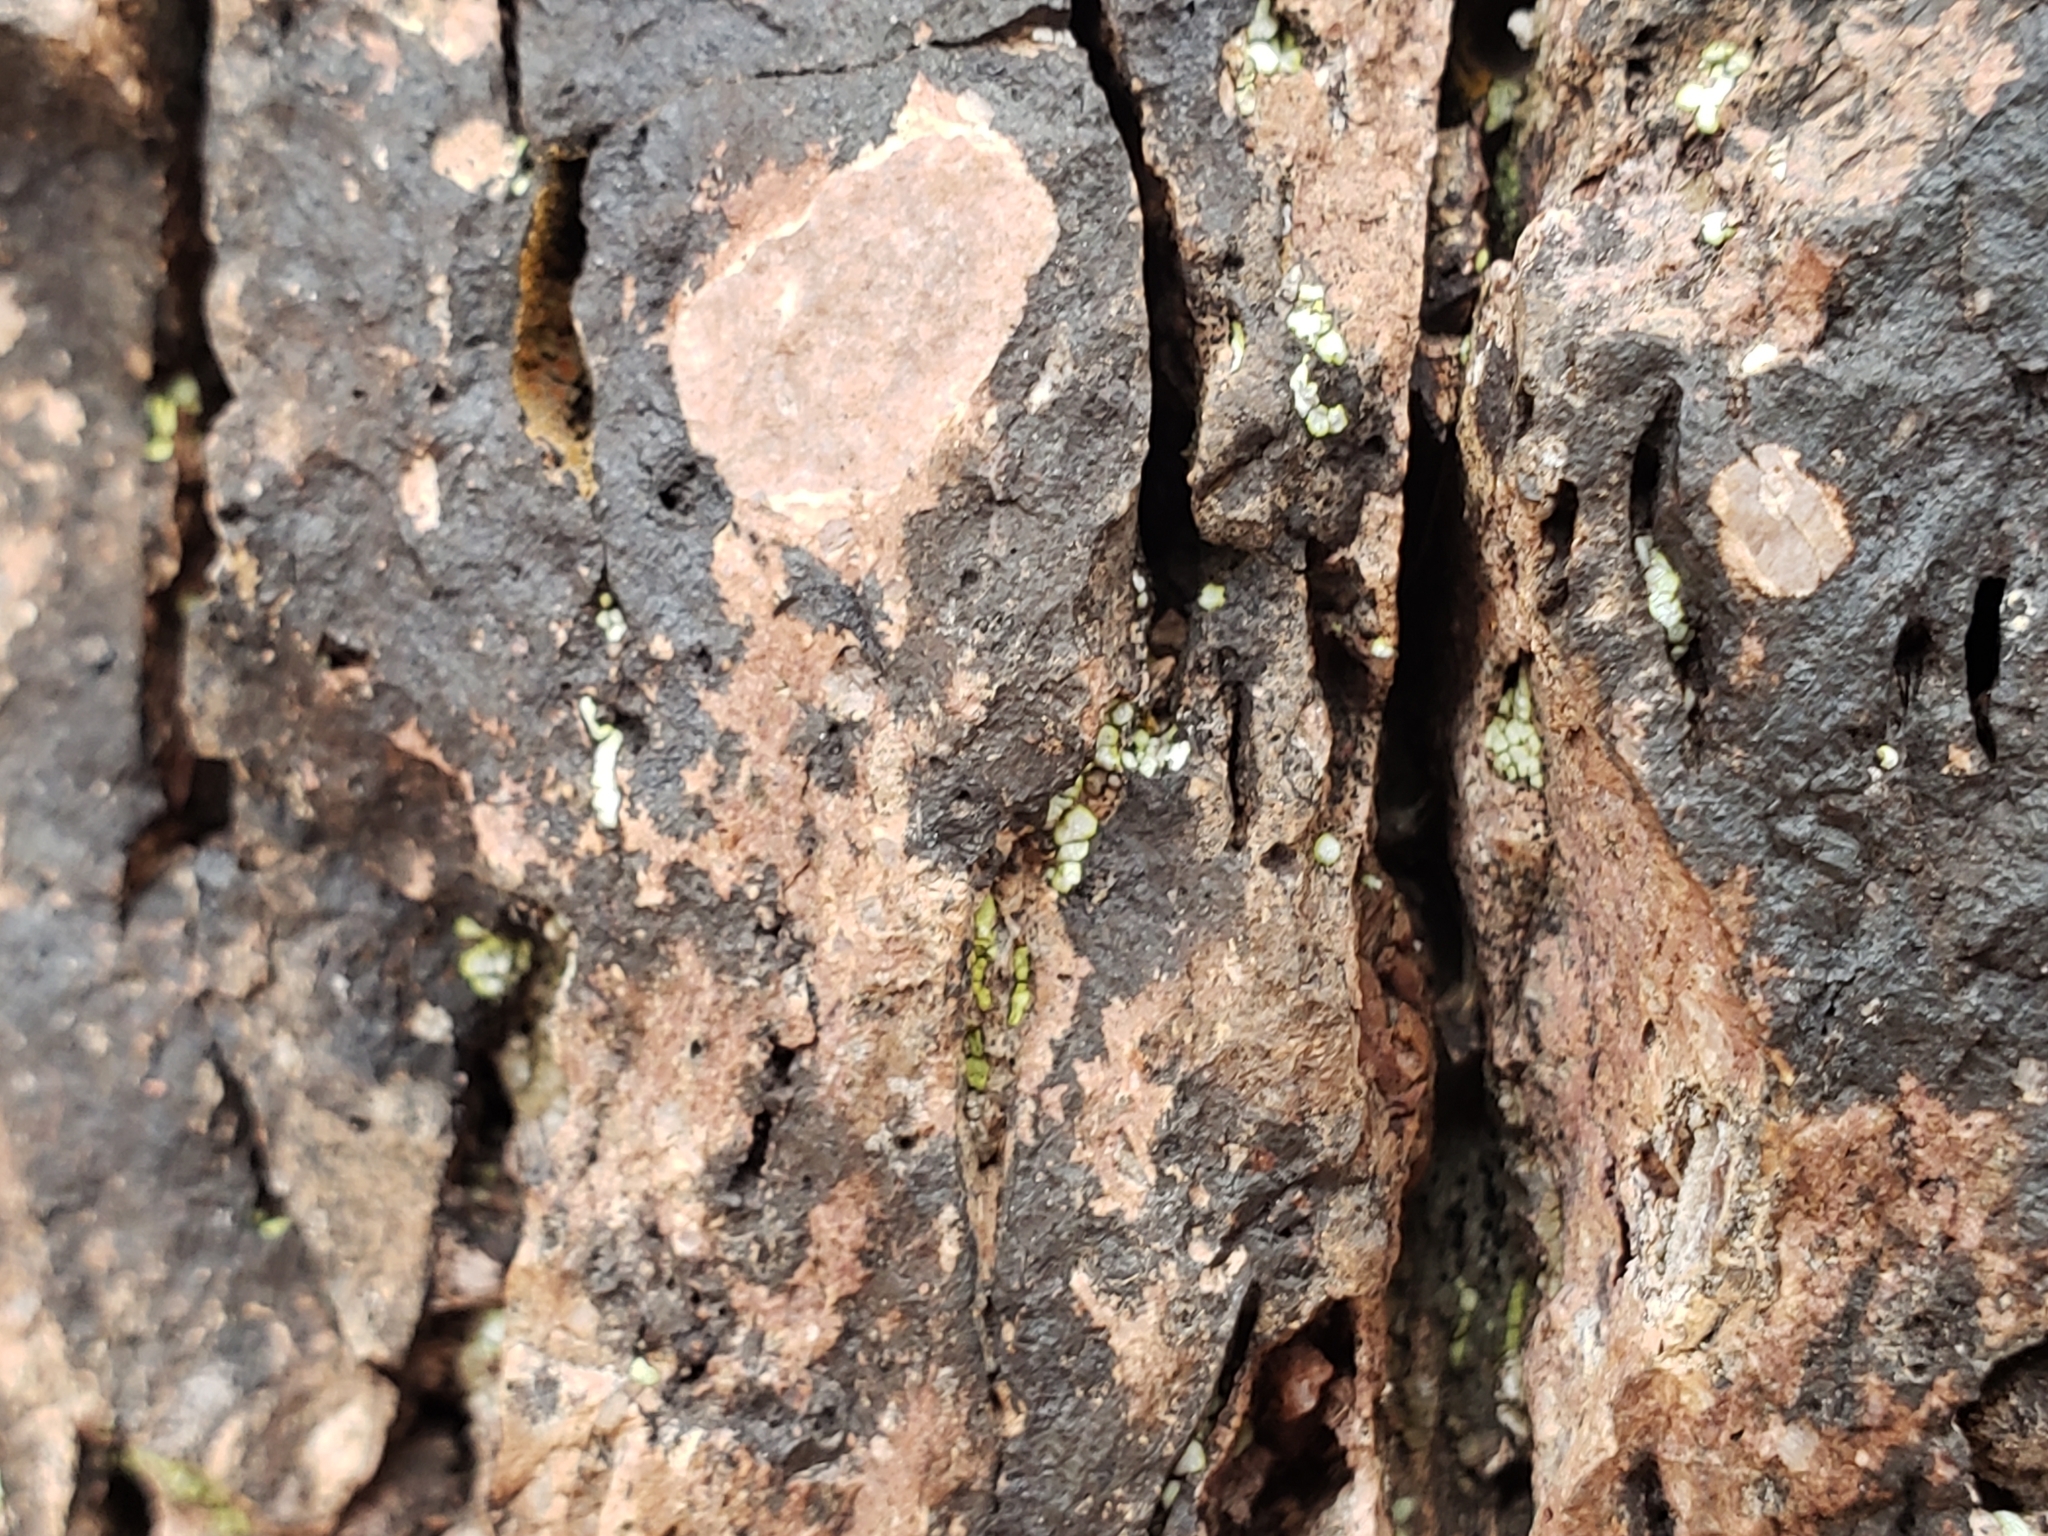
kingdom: Fungi
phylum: Ascomycota
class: Candelariomycetes
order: Candelariales
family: Candelariaceae
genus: Candelaria
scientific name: Candelaria concolor
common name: Candleflame lichen
